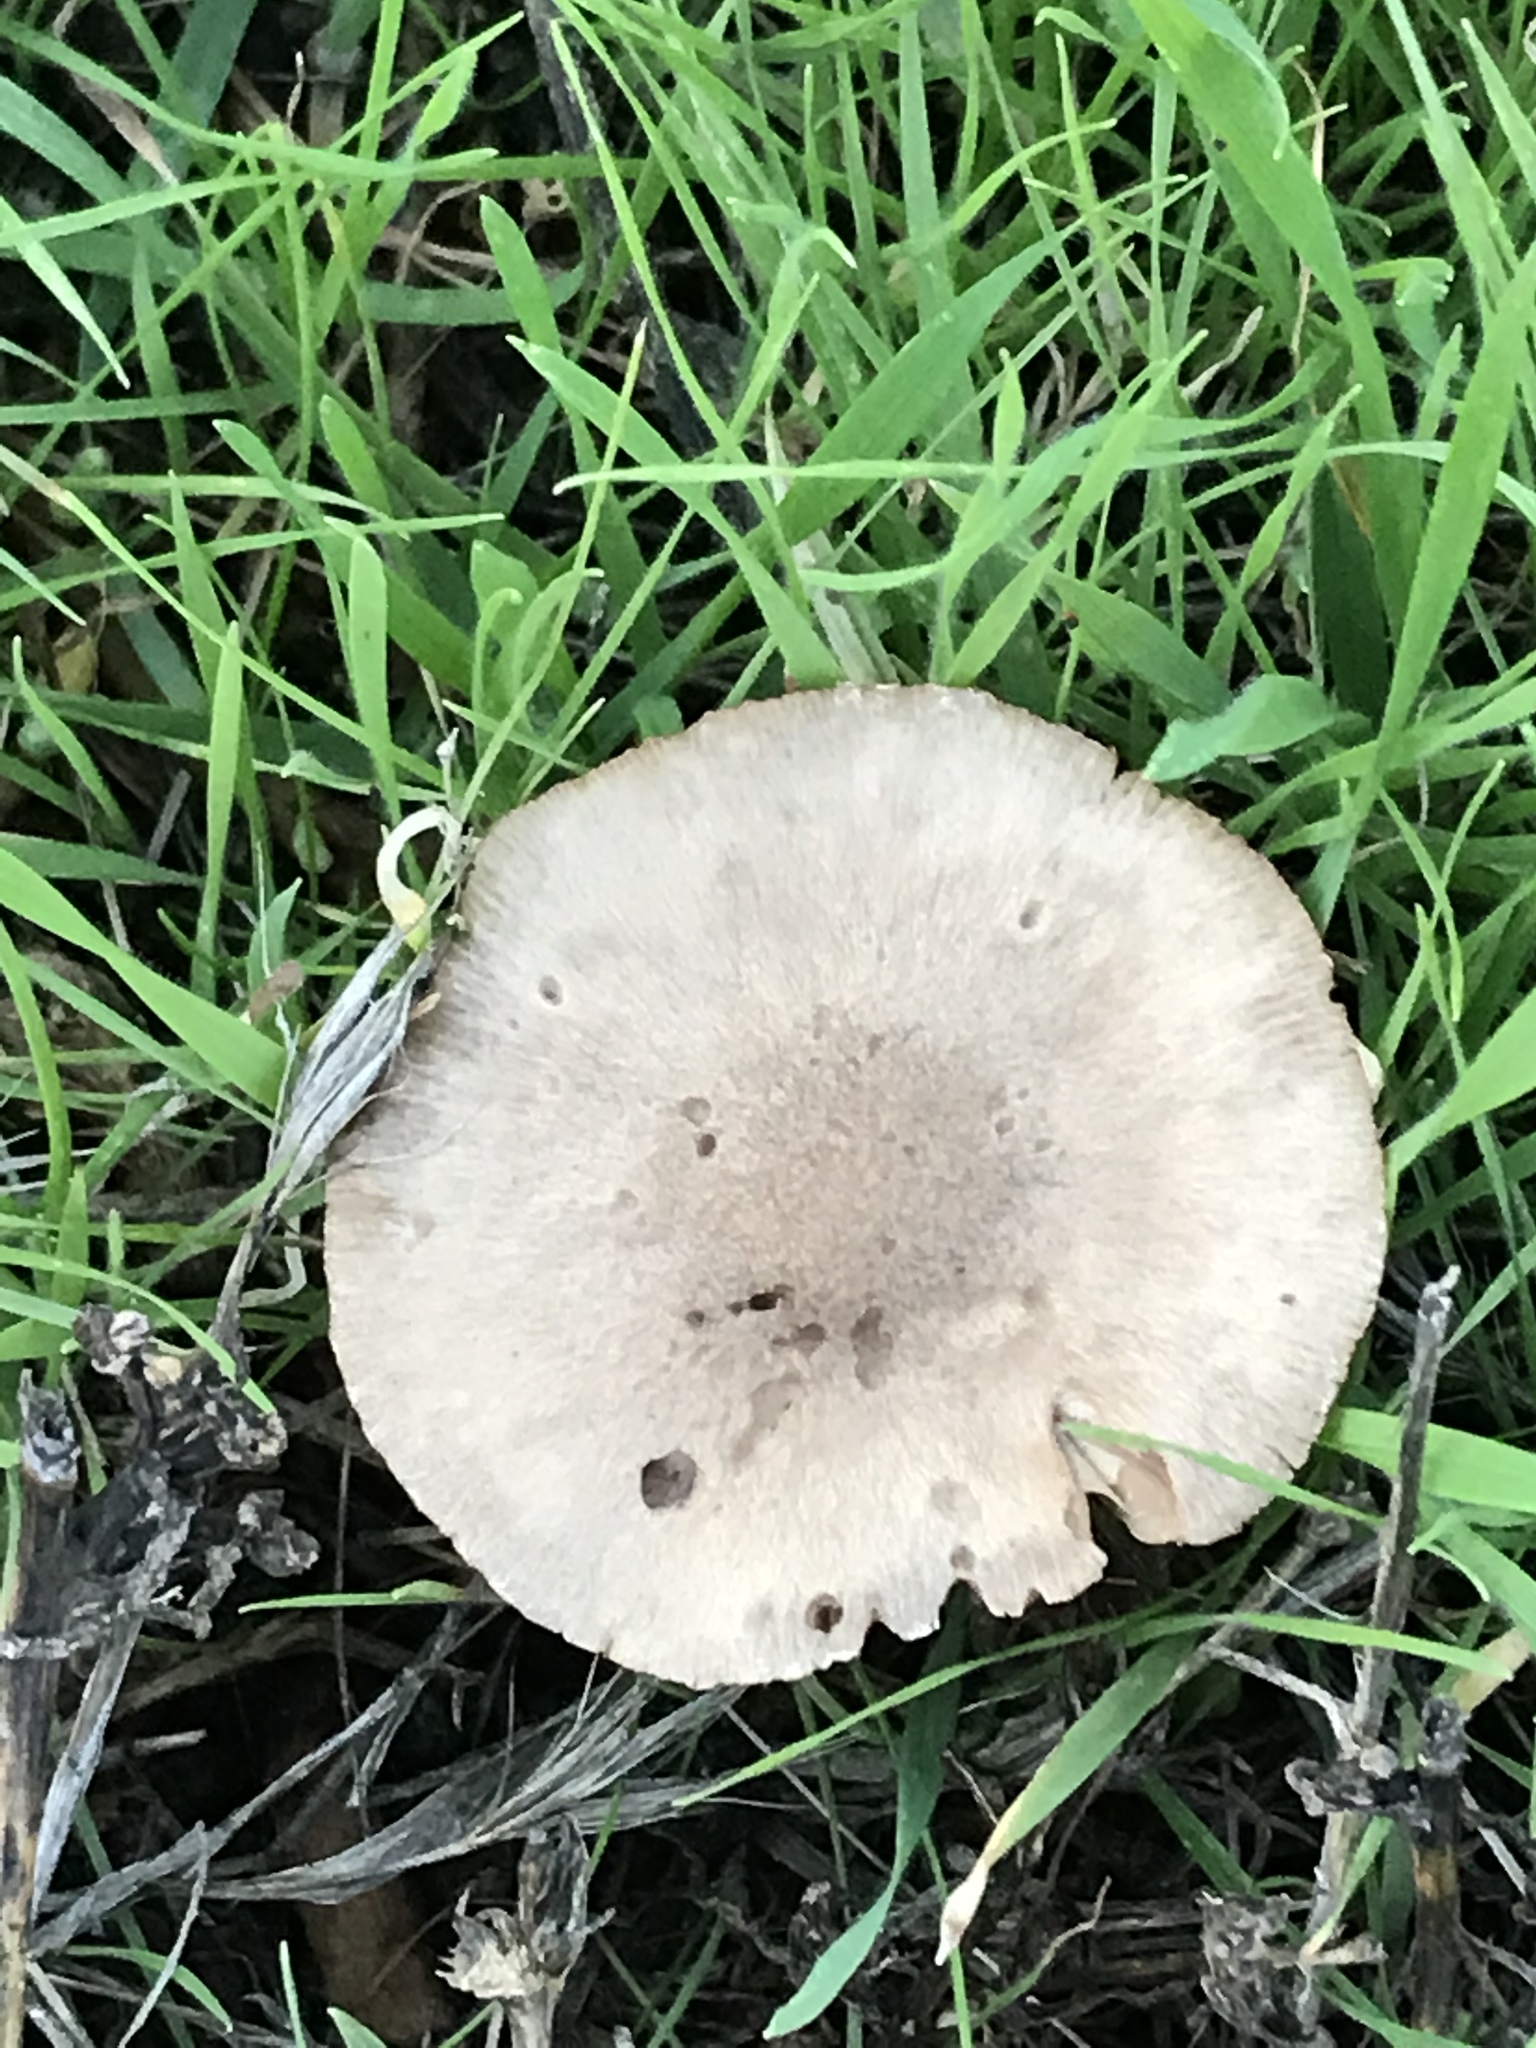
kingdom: Fungi
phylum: Basidiomycota
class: Agaricomycetes
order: Agaricales
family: Pluteaceae
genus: Volvopluteus
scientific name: Volvopluteus gloiocephalus
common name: Stubble rosegill
